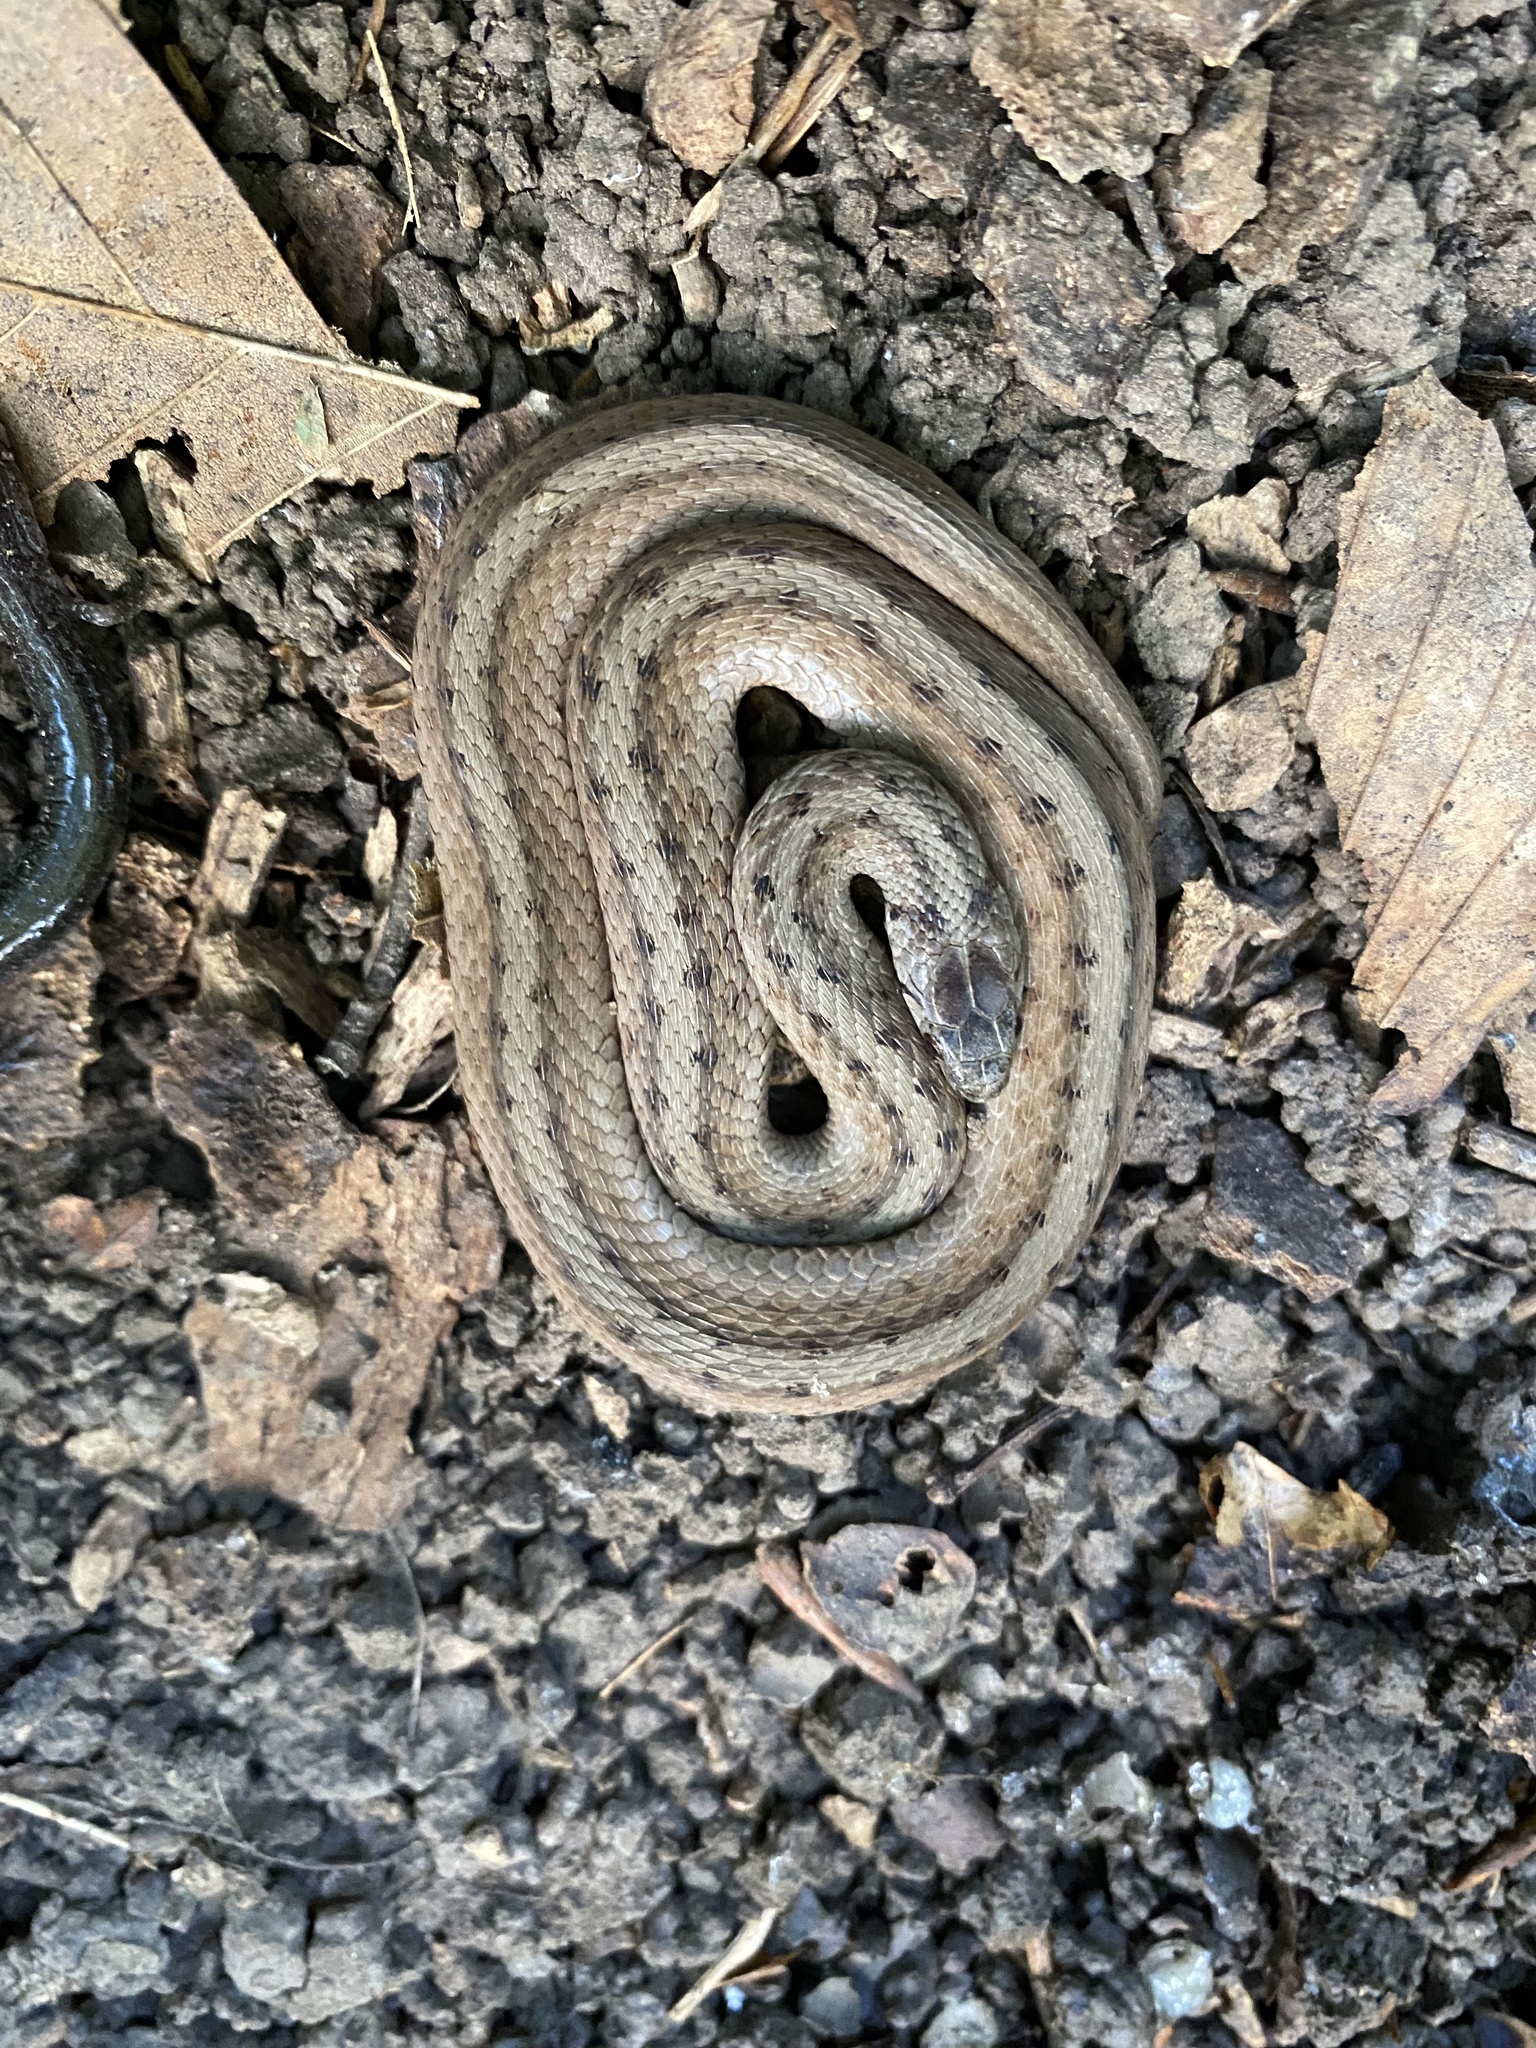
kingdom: Animalia
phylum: Chordata
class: Squamata
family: Colubridae
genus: Storeria
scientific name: Storeria dekayi
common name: (dekay’s) brown snake
